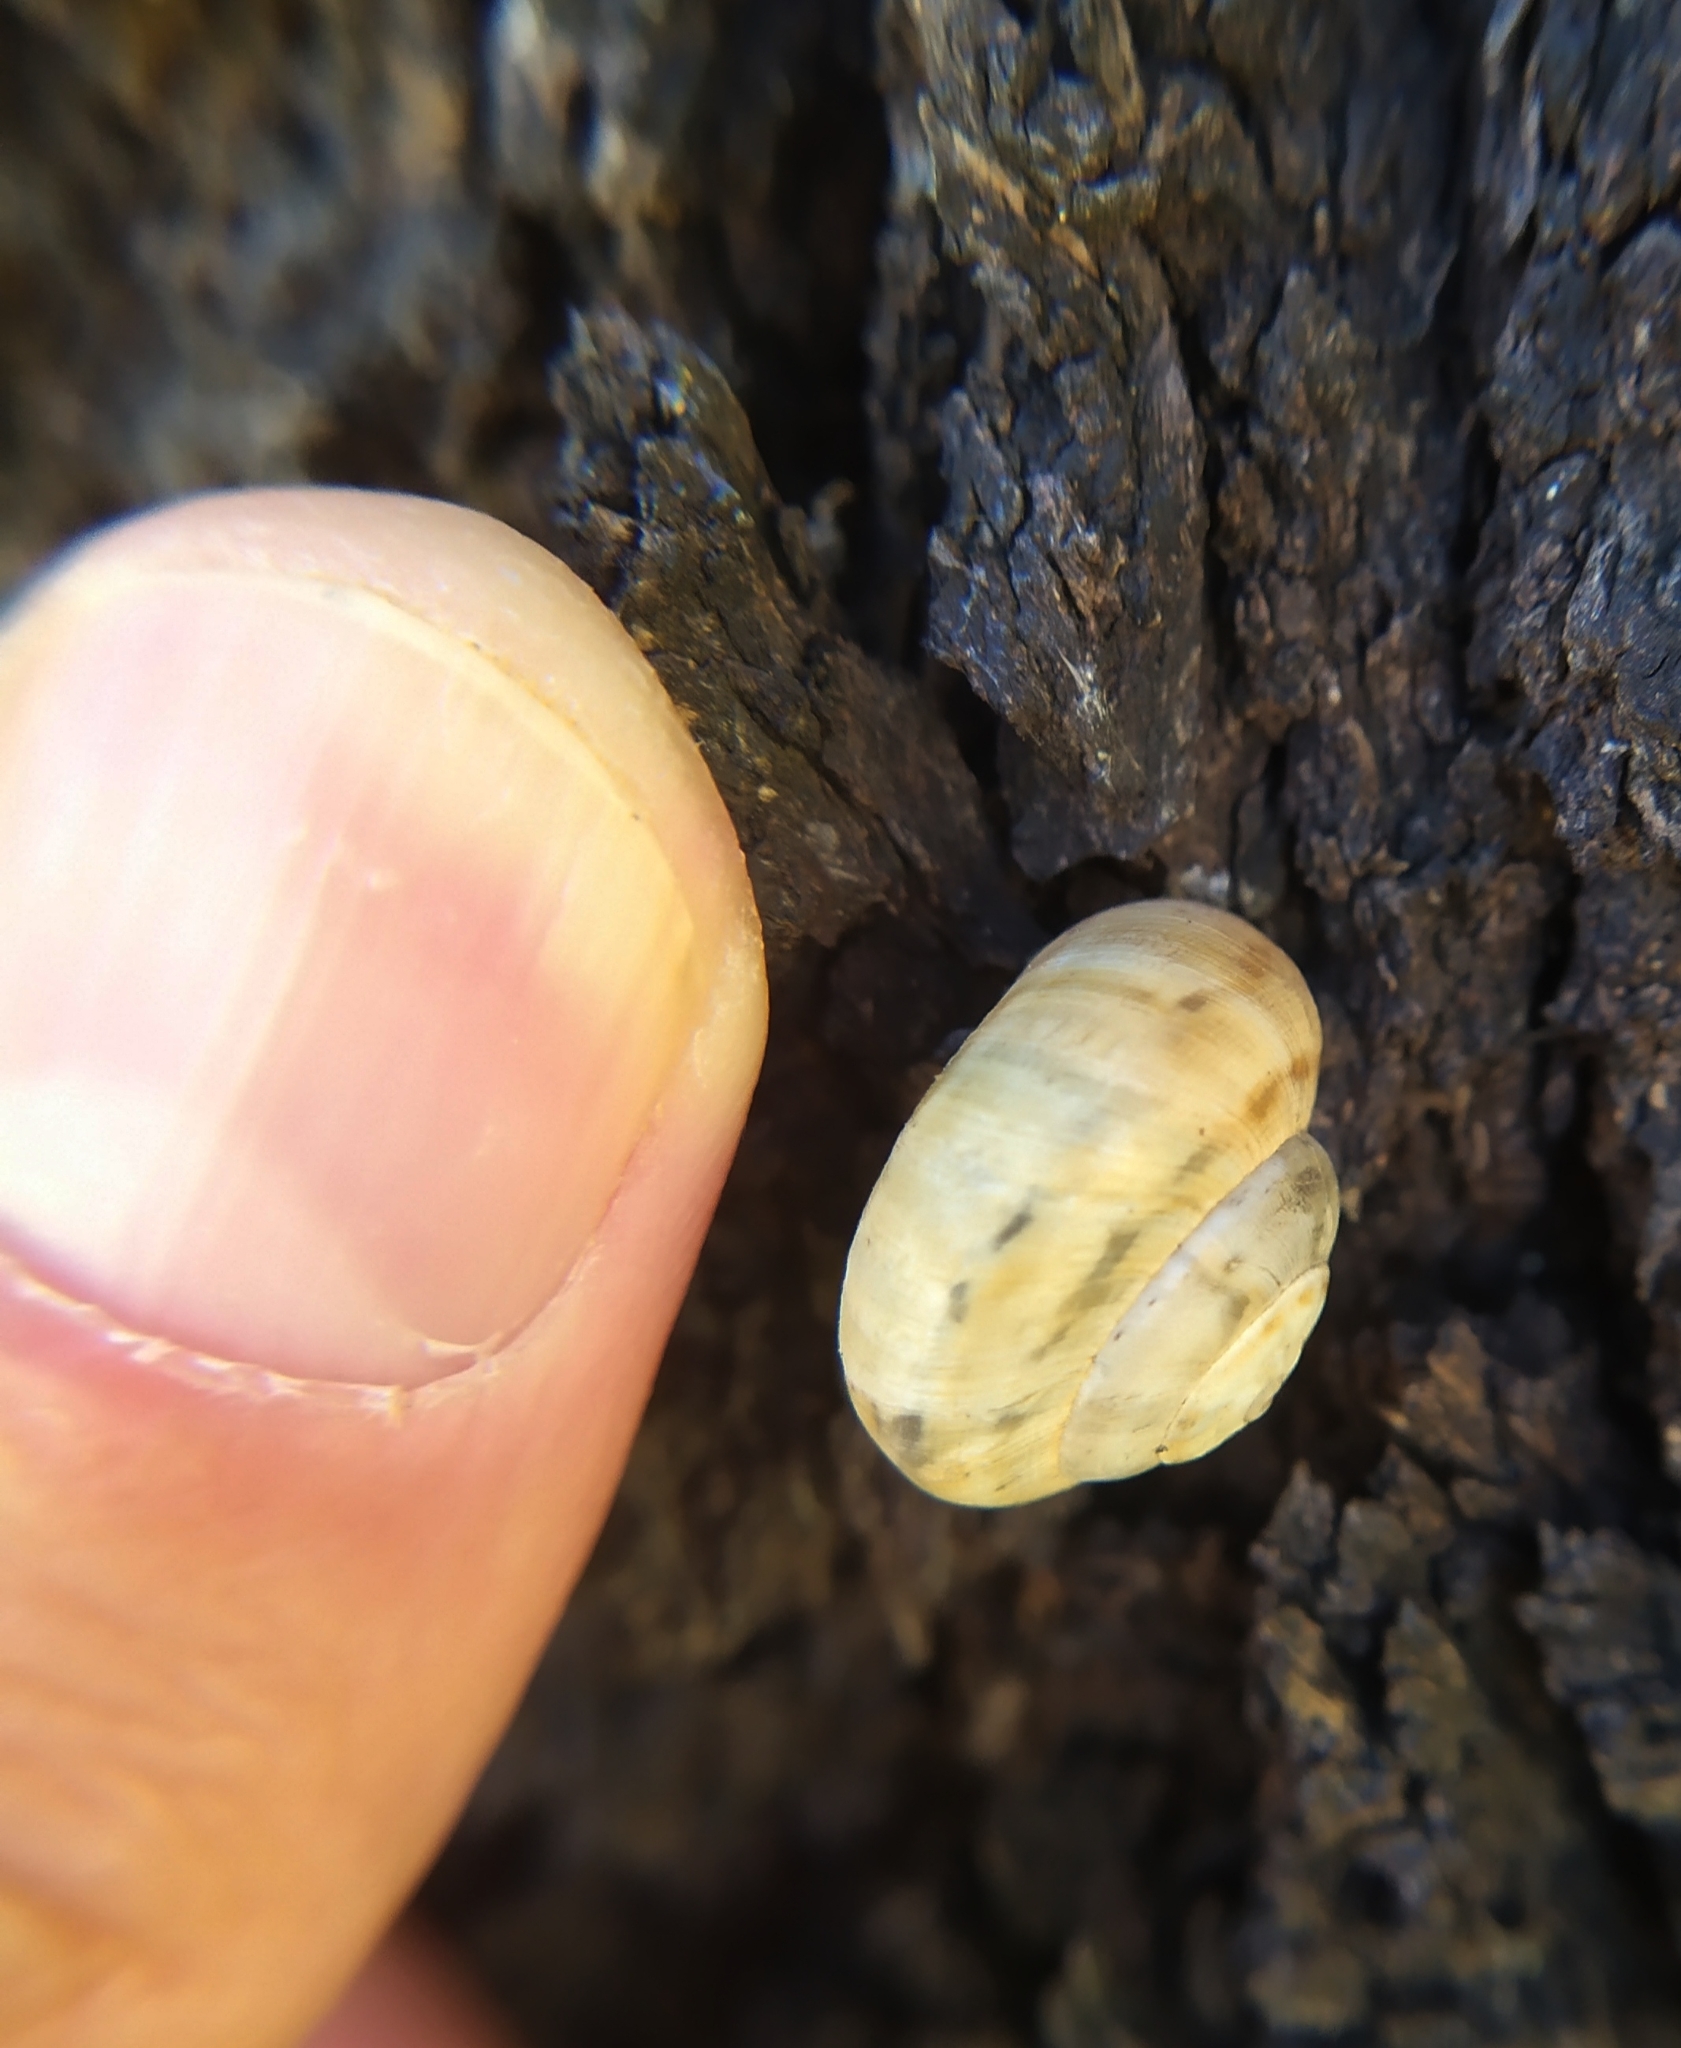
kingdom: Animalia
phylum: Mollusca
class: Gastropoda
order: Stylommatophora
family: Helicidae
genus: Theba
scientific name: Theba pisana
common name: White snail
